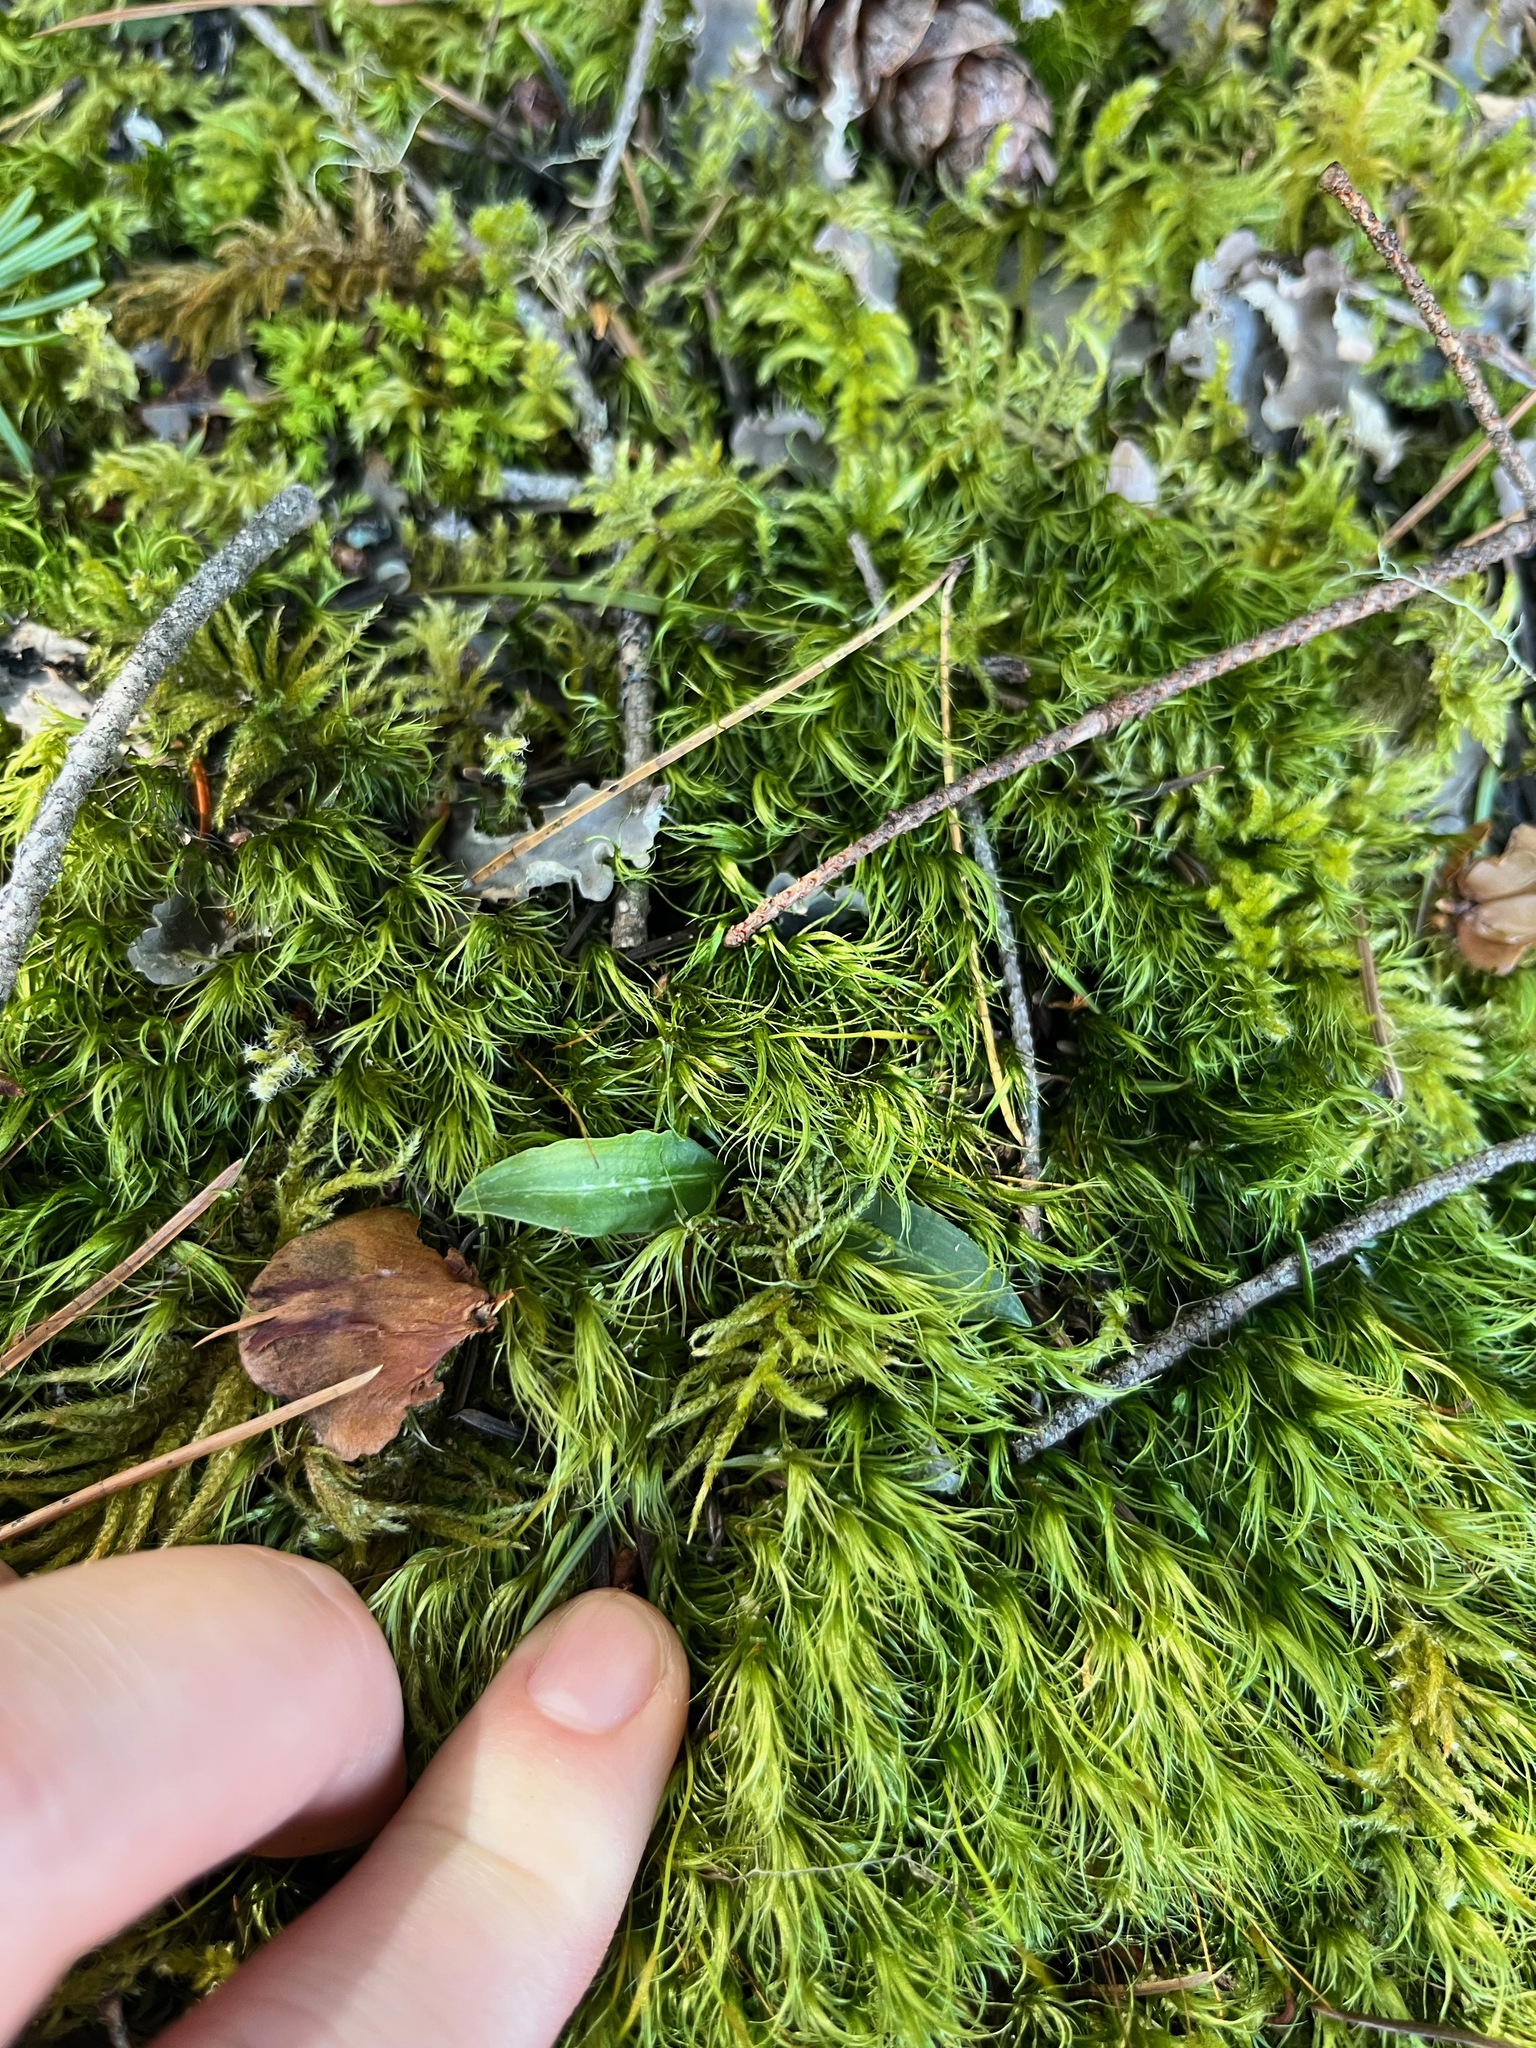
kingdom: Plantae
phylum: Tracheophyta
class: Liliopsida
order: Asparagales
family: Orchidaceae
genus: Goodyera
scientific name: Goodyera oblongifolia
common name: Giant rattlesnake-plantain
